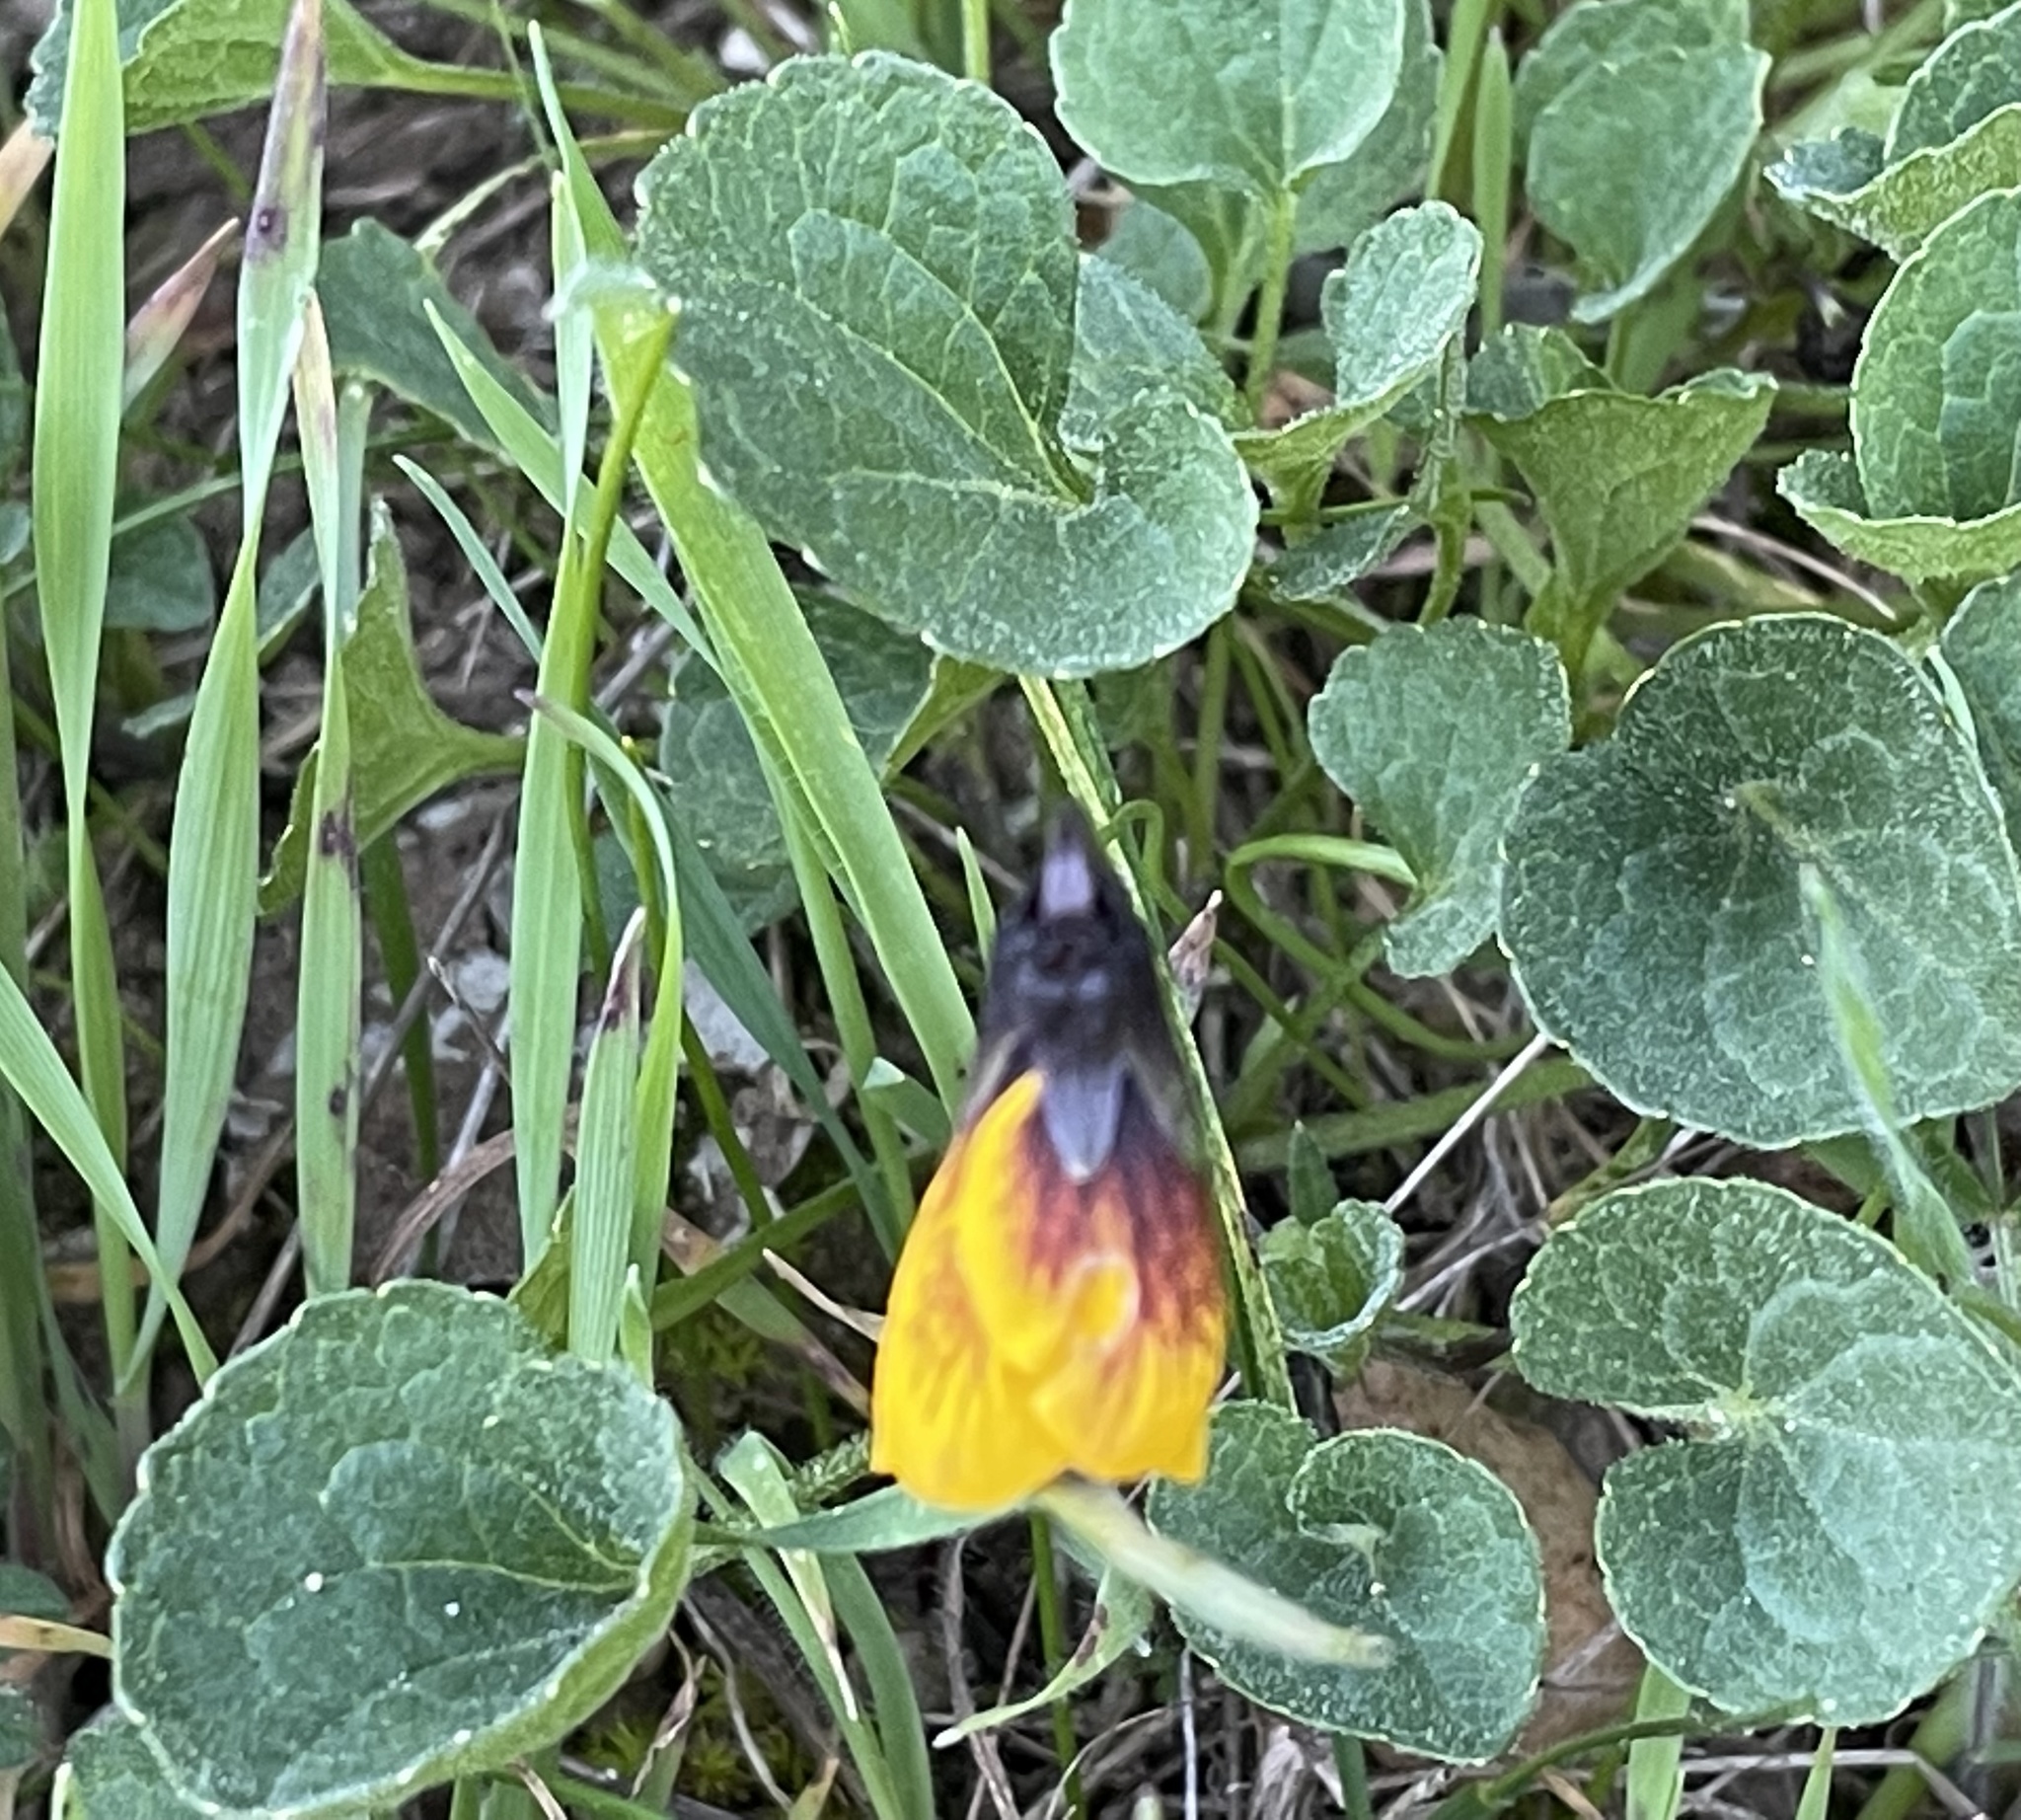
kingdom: Plantae
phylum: Tracheophyta
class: Magnoliopsida
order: Malpighiales
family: Violaceae
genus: Viola
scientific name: Viola pedunculata
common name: California golden violet
